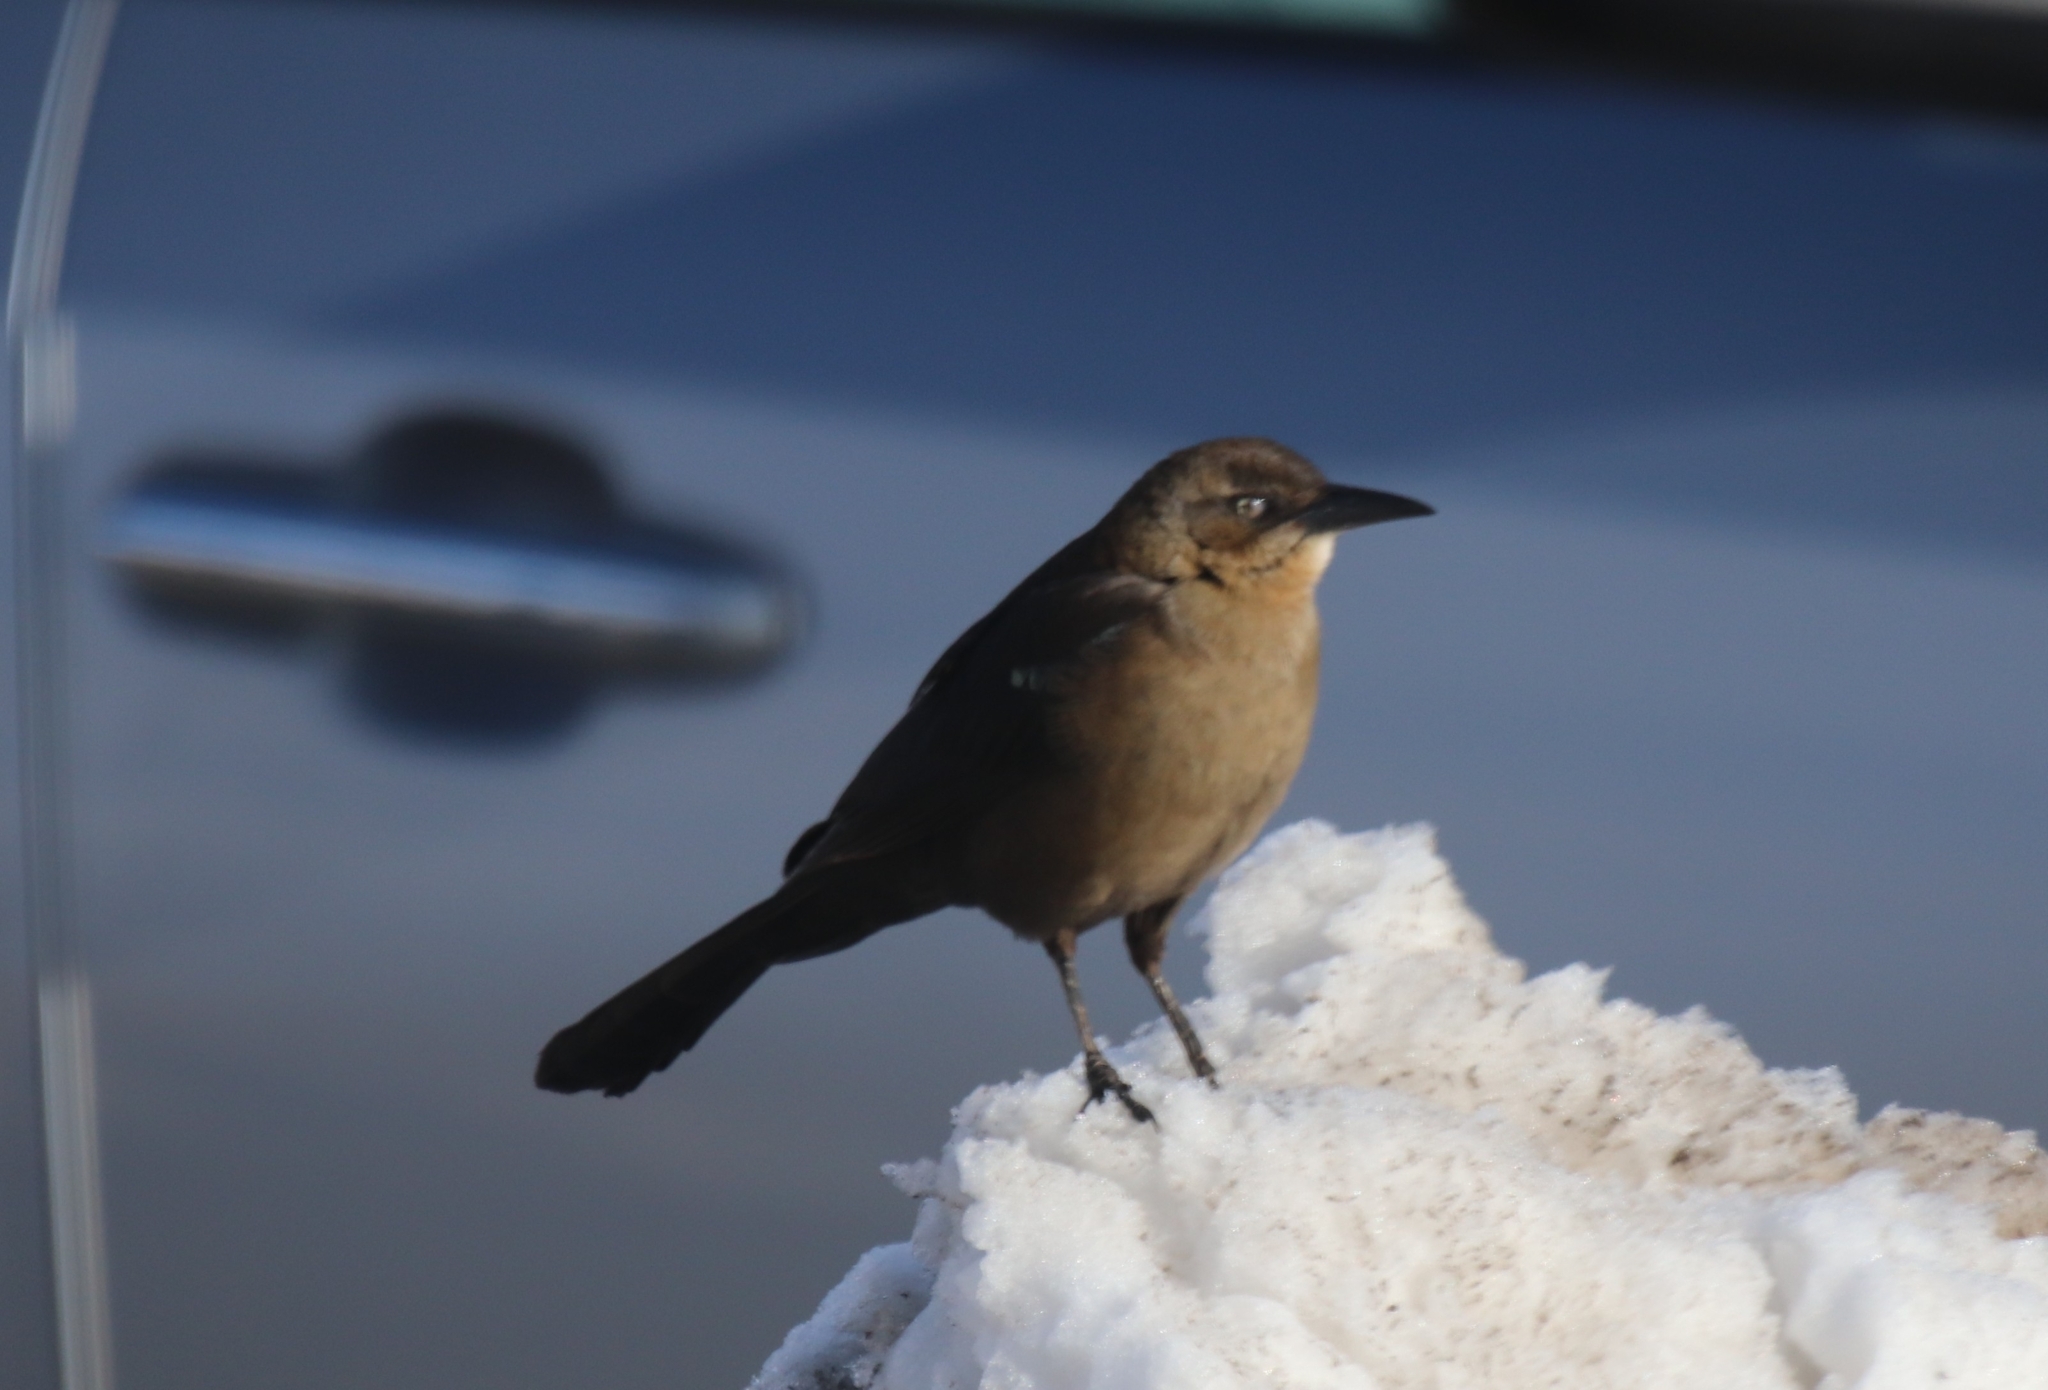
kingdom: Animalia
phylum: Chordata
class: Aves
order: Passeriformes
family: Icteridae
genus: Quiscalus
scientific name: Quiscalus mexicanus
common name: Great-tailed grackle
